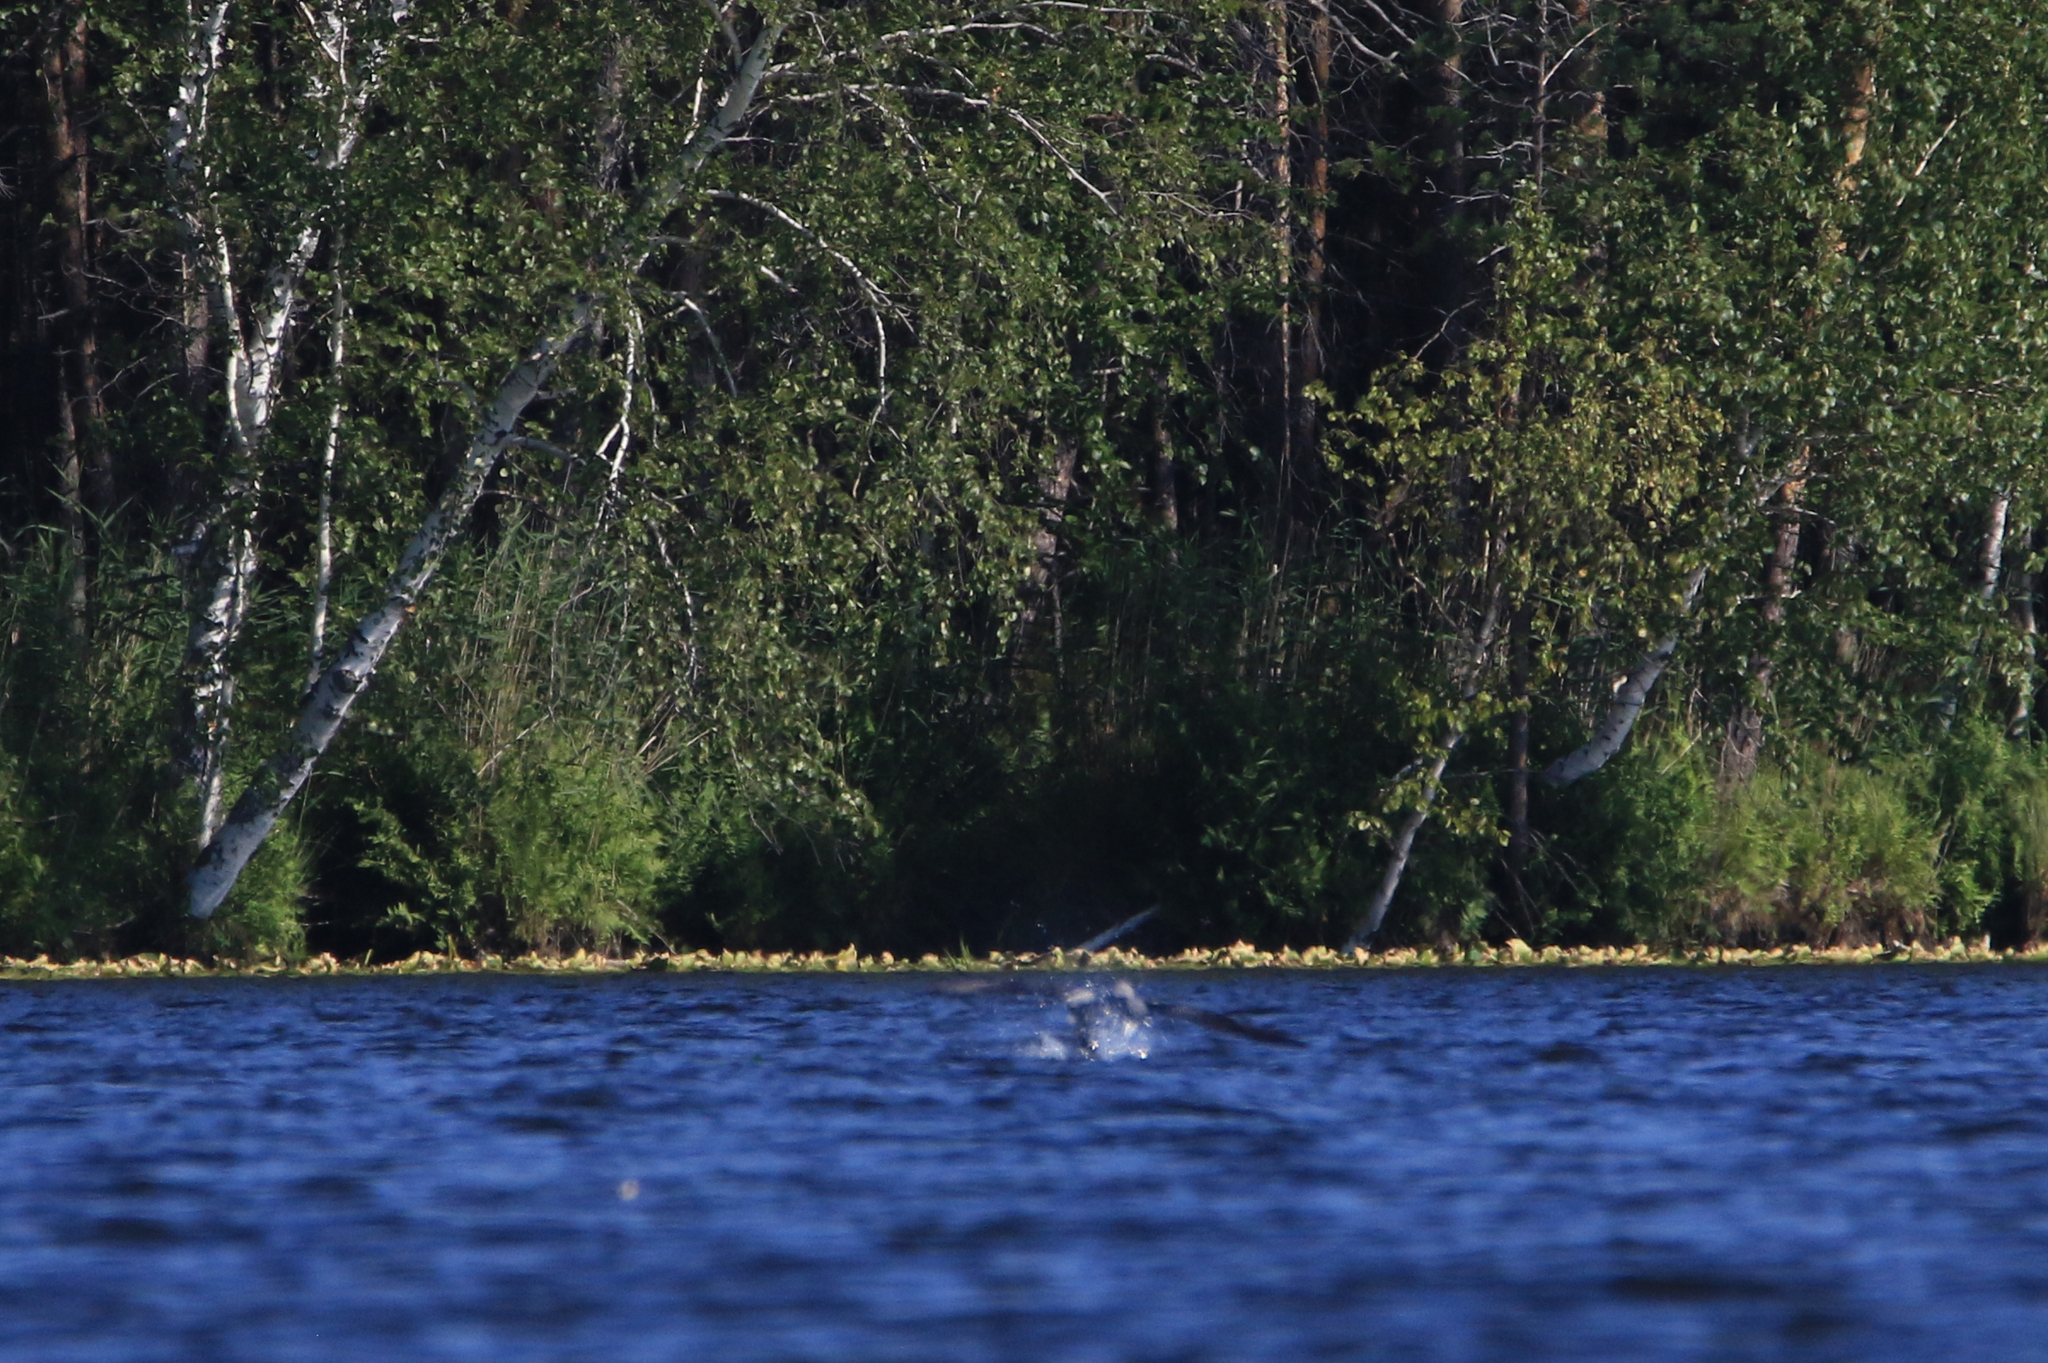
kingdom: Animalia
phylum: Chordata
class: Aves
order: Gaviiformes
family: Gaviidae
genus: Gavia
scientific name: Gavia arctica
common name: Black-throated loon
